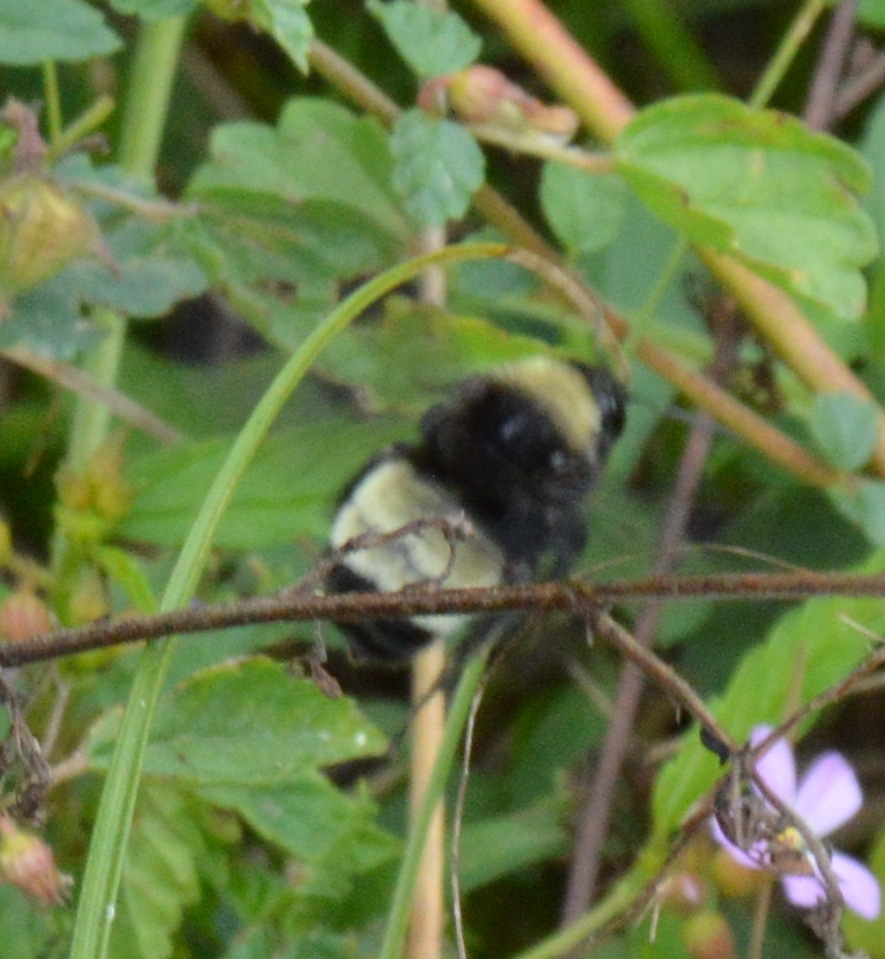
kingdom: Animalia
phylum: Arthropoda
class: Insecta
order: Hymenoptera
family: Apidae
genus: Bombus
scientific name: Bombus pensylvanicus
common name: Bumble bee
